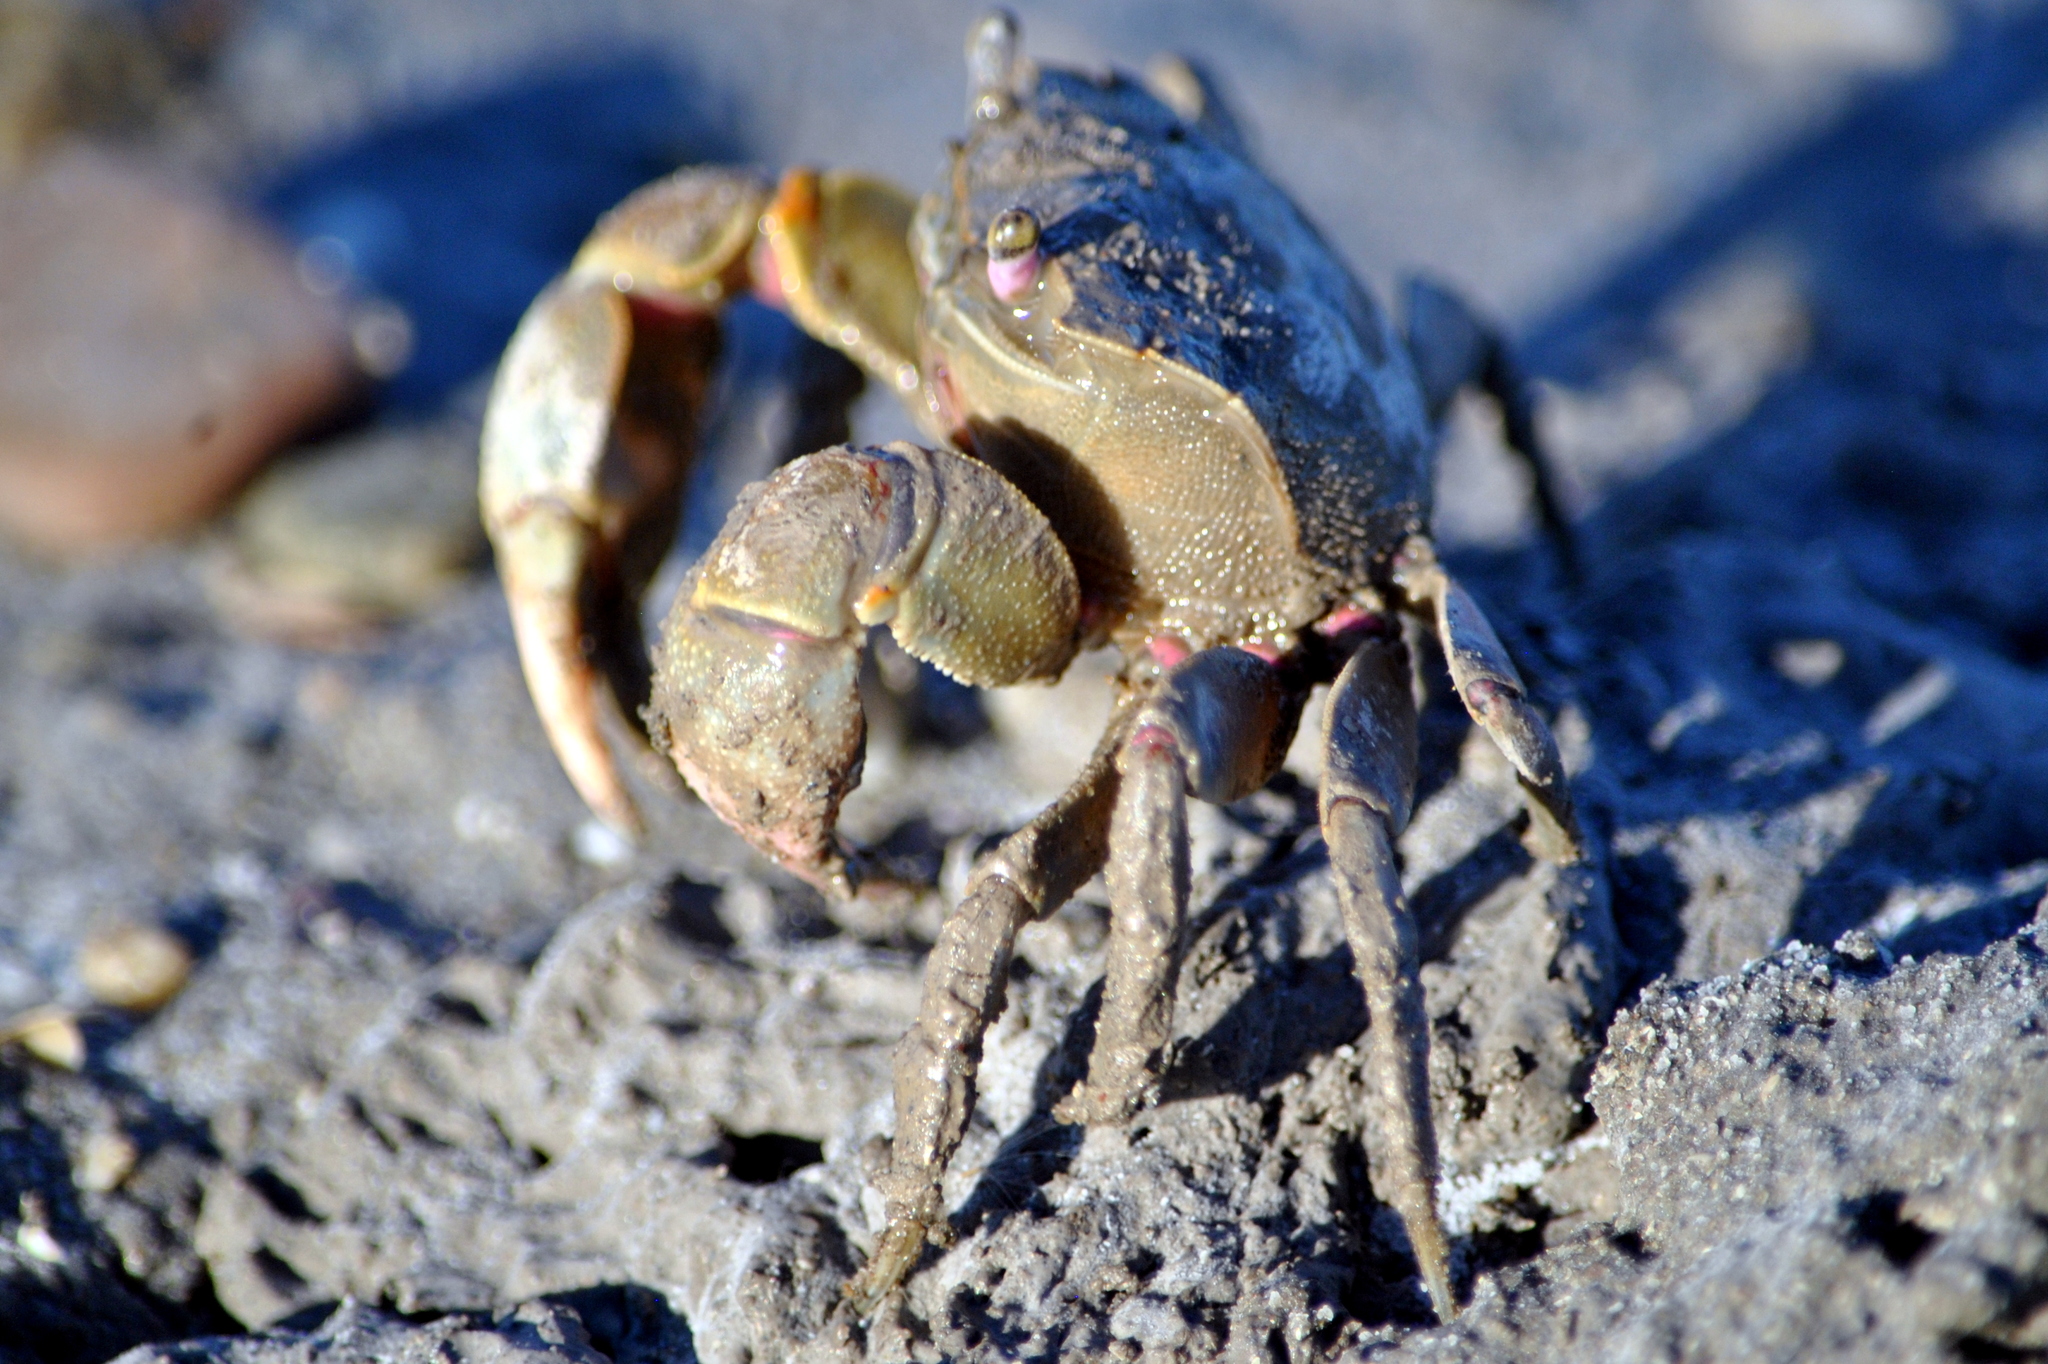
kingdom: Animalia
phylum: Arthropoda
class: Malacostraca
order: Decapoda
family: Varunidae
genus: Neohelice
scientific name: Neohelice granulata
